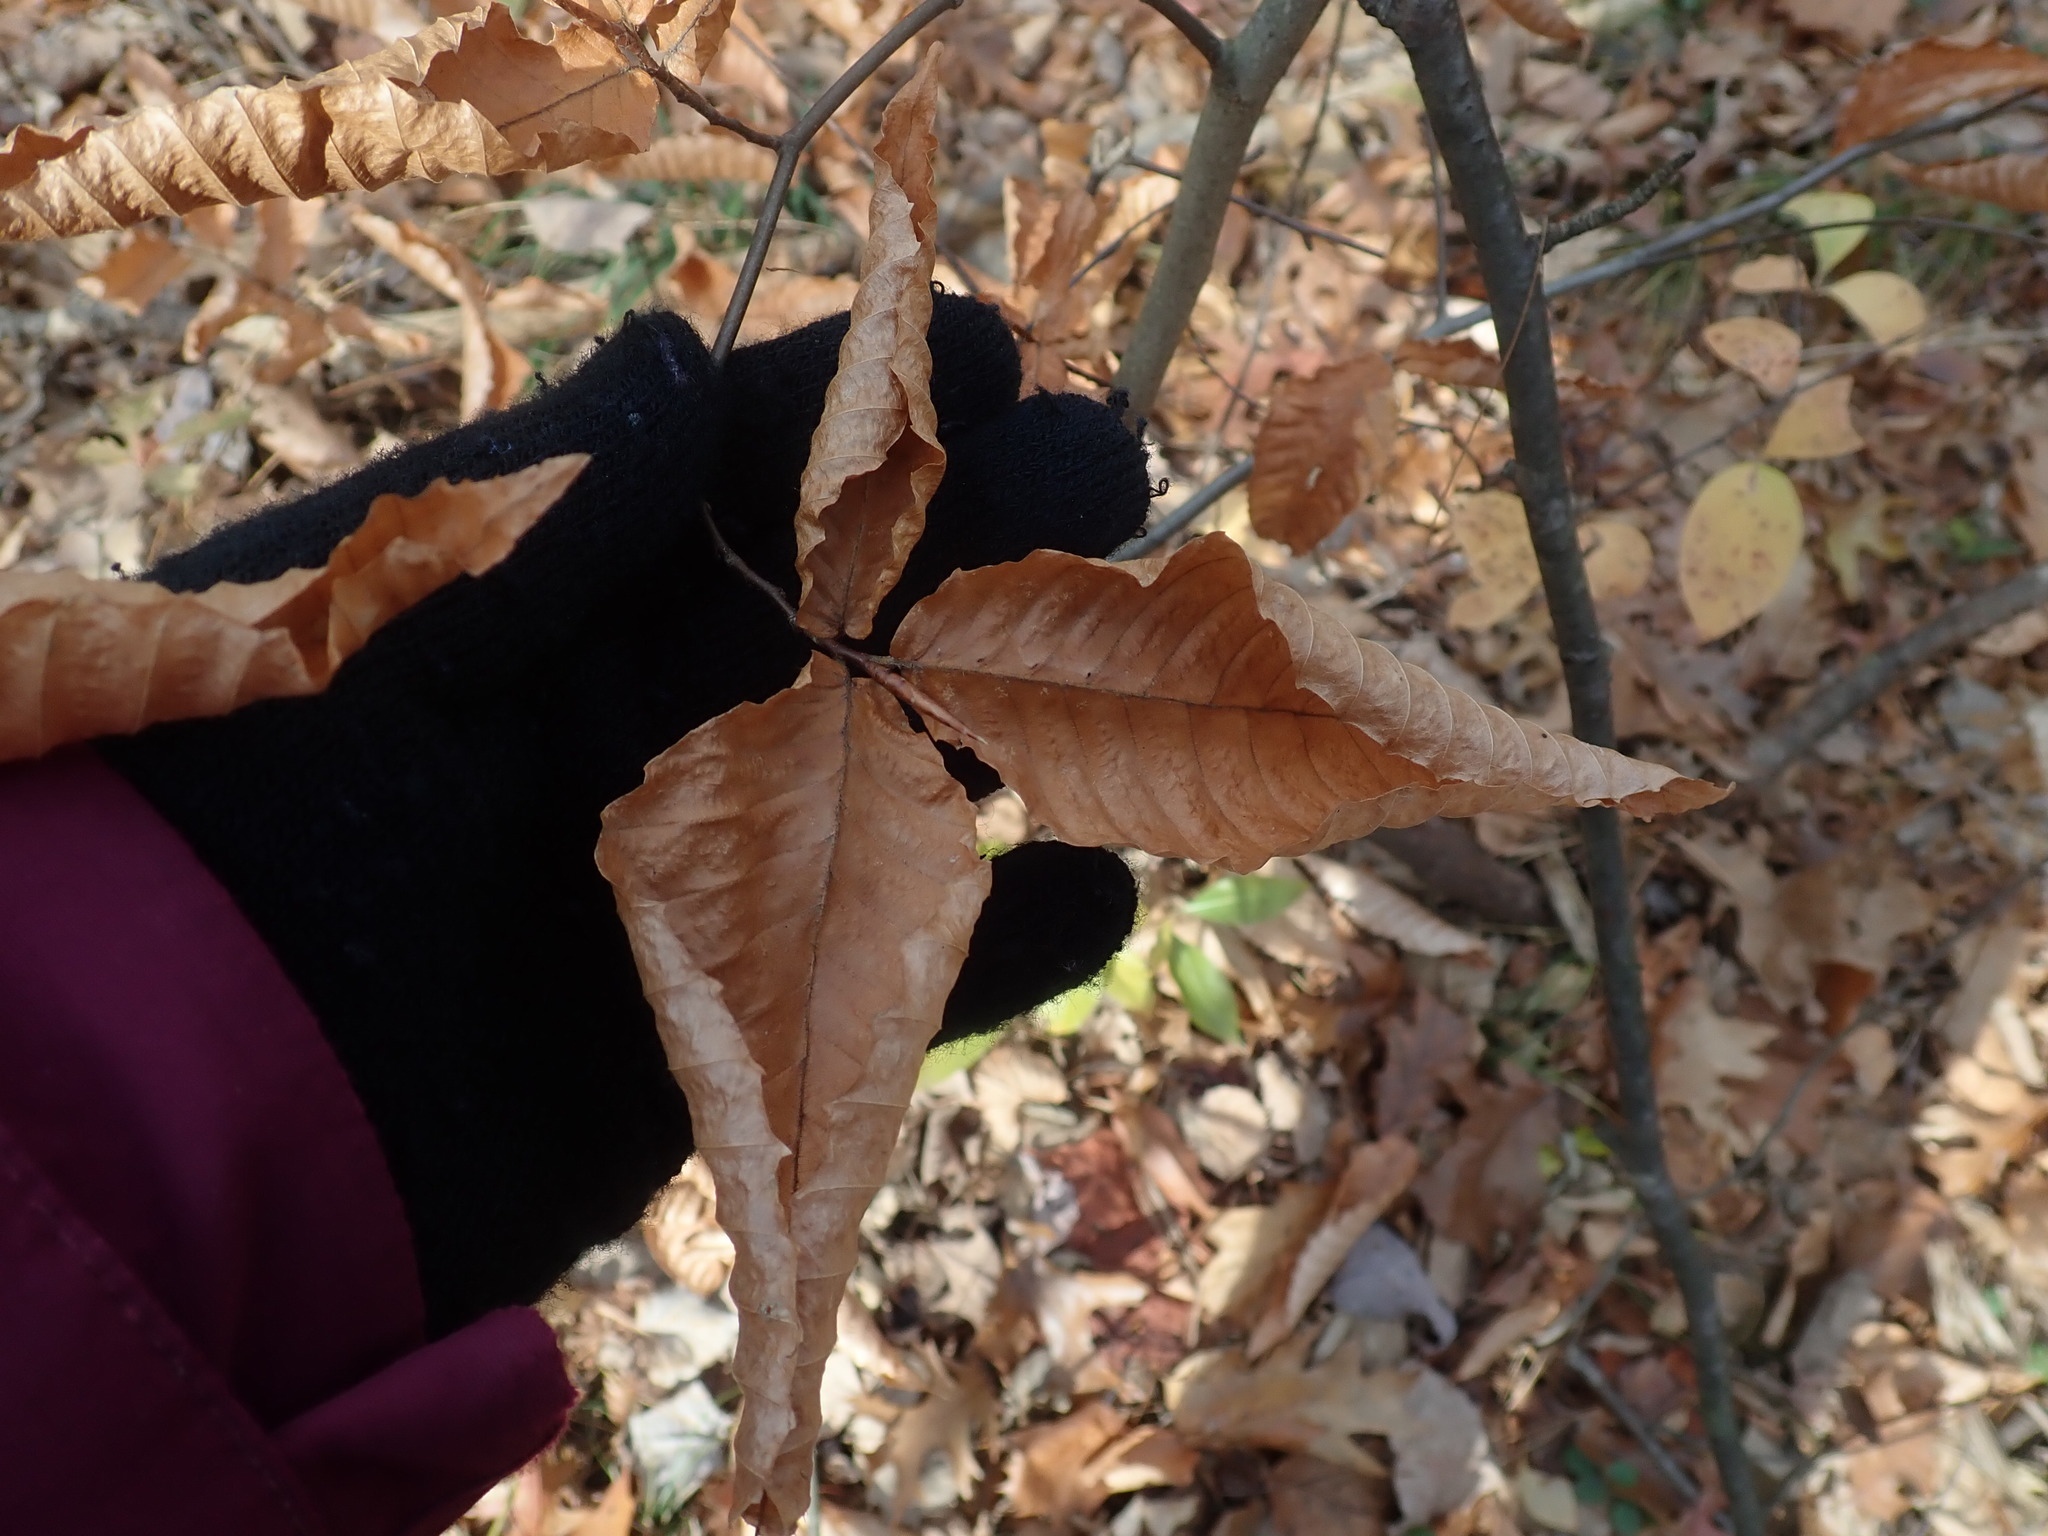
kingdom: Plantae
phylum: Tracheophyta
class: Magnoliopsida
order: Fagales
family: Fagaceae
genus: Fagus
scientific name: Fagus grandifolia
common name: American beech
